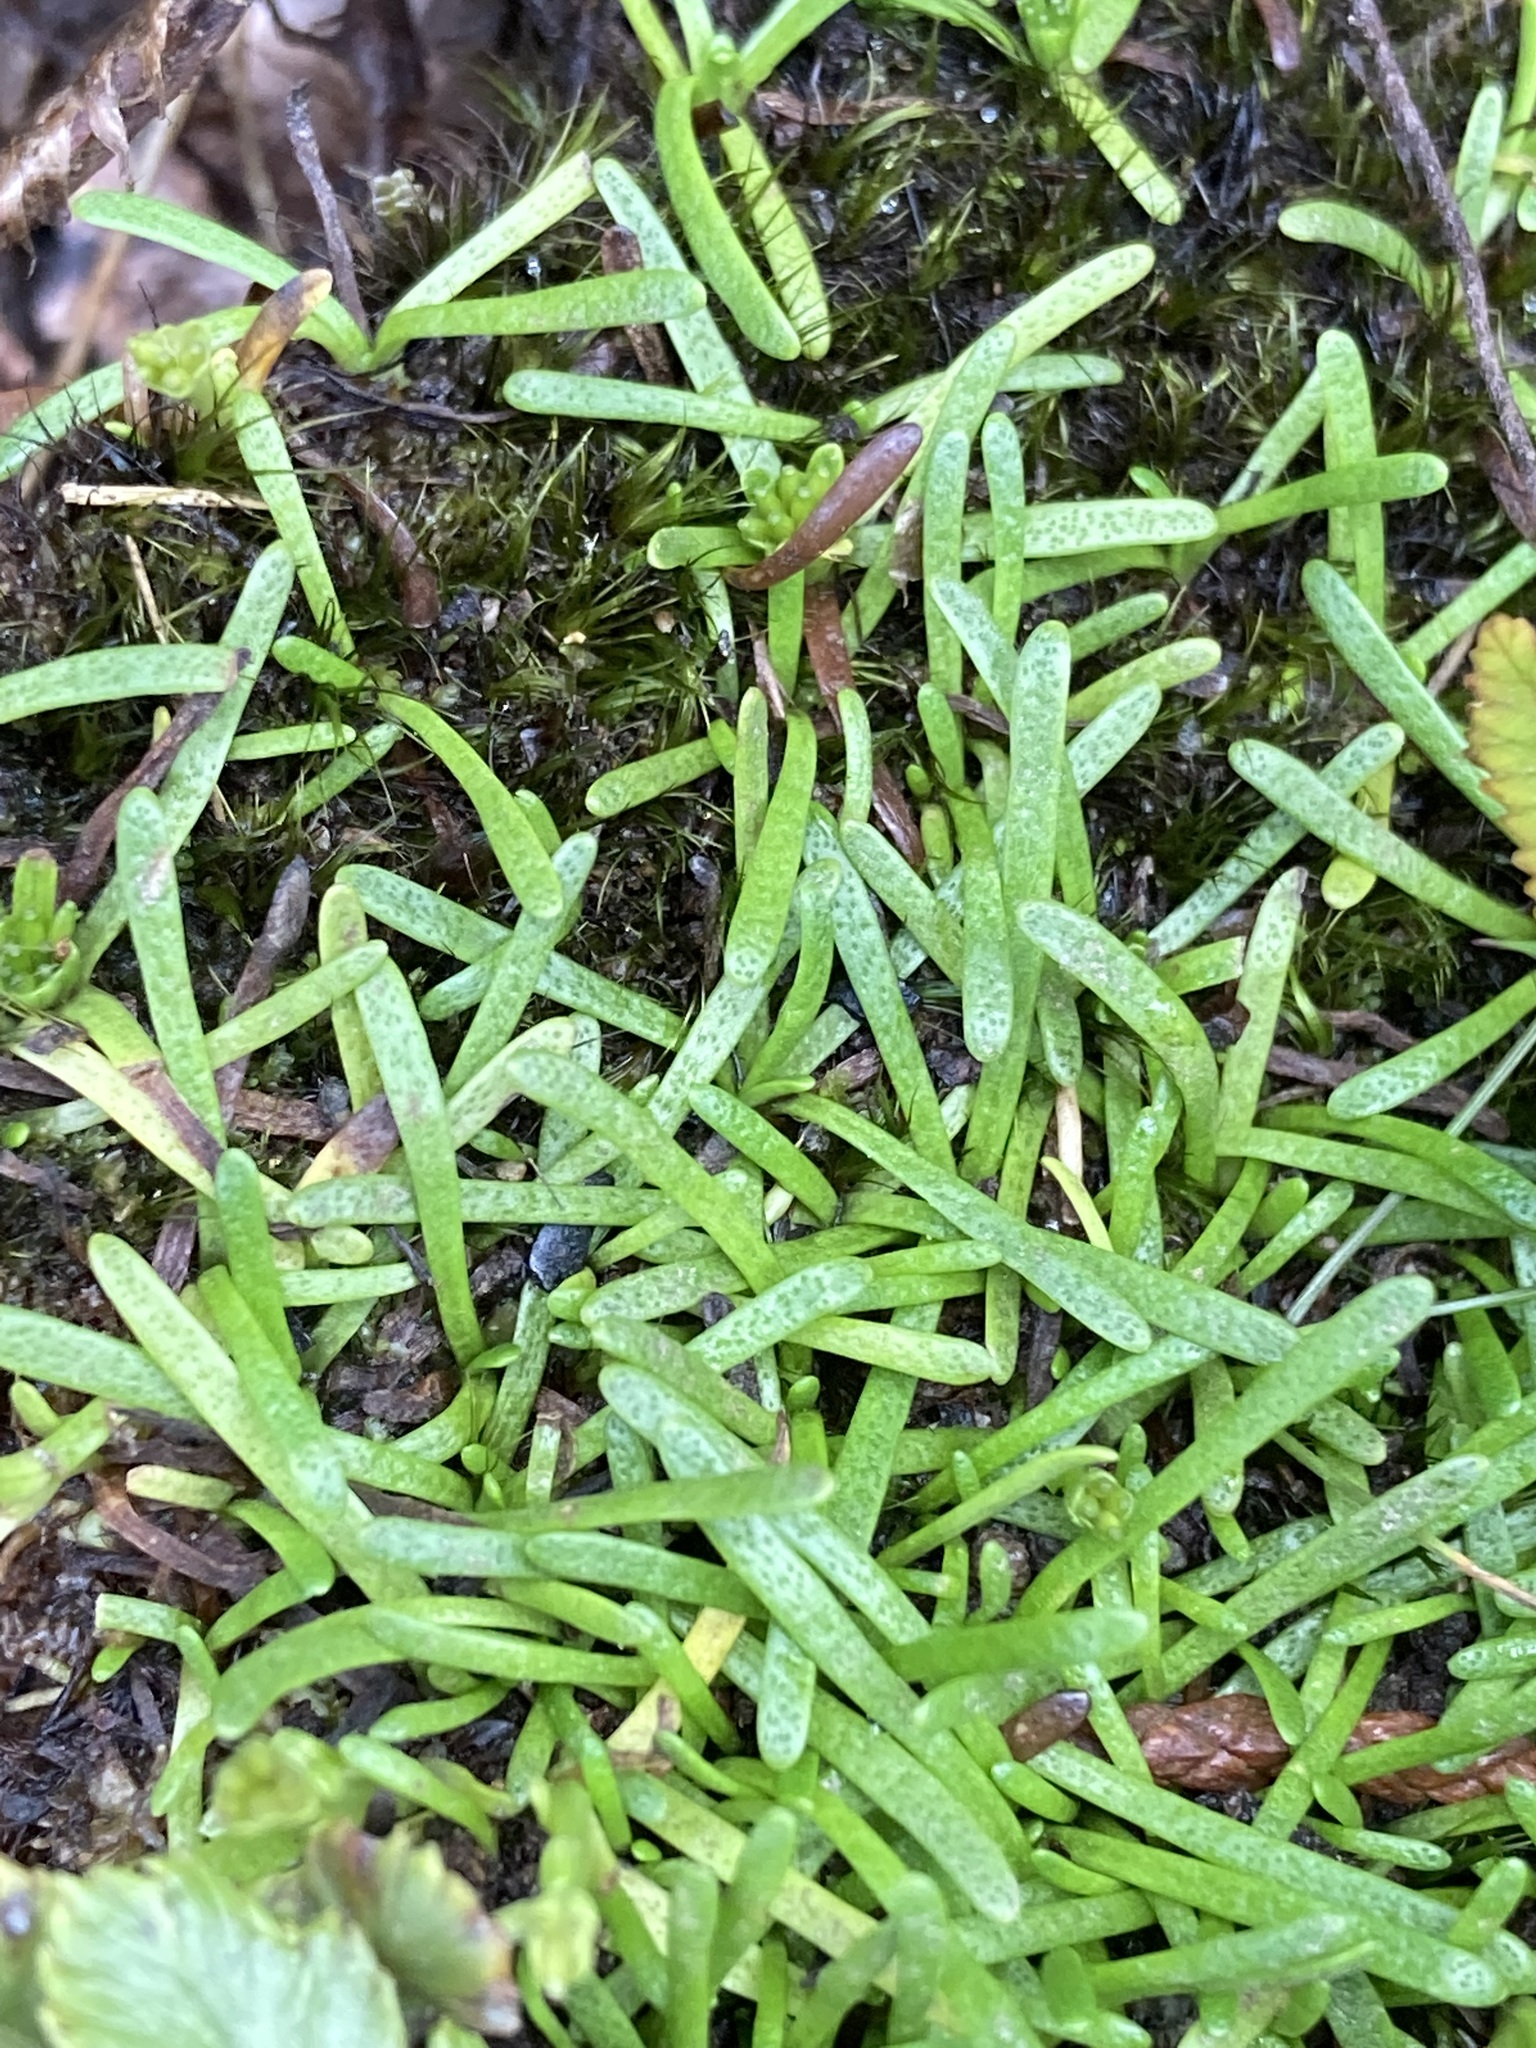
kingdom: Plantae
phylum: Tracheophyta
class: Magnoliopsida
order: Asterales
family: Asteraceae
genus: Abrotanella
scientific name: Abrotanella caespitosa
